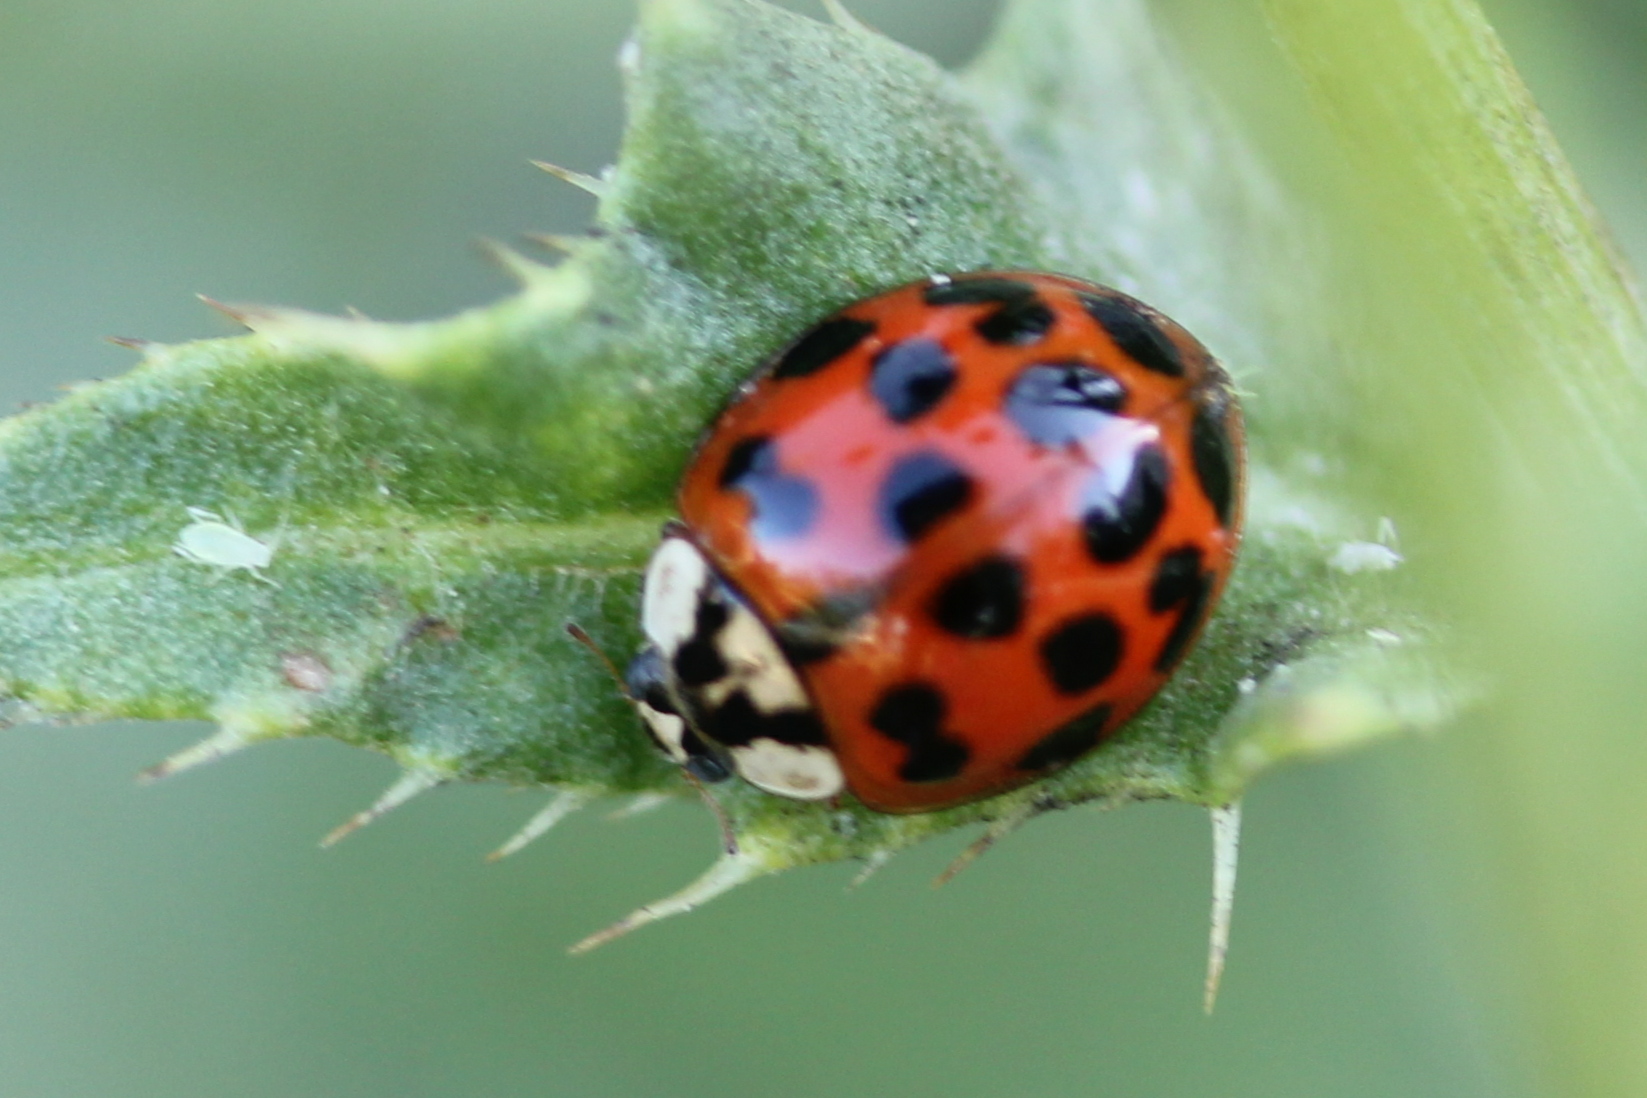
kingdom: Animalia
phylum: Arthropoda
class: Insecta
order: Coleoptera
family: Coccinellidae
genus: Harmonia
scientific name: Harmonia axyridis
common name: Harlequin ladybird
